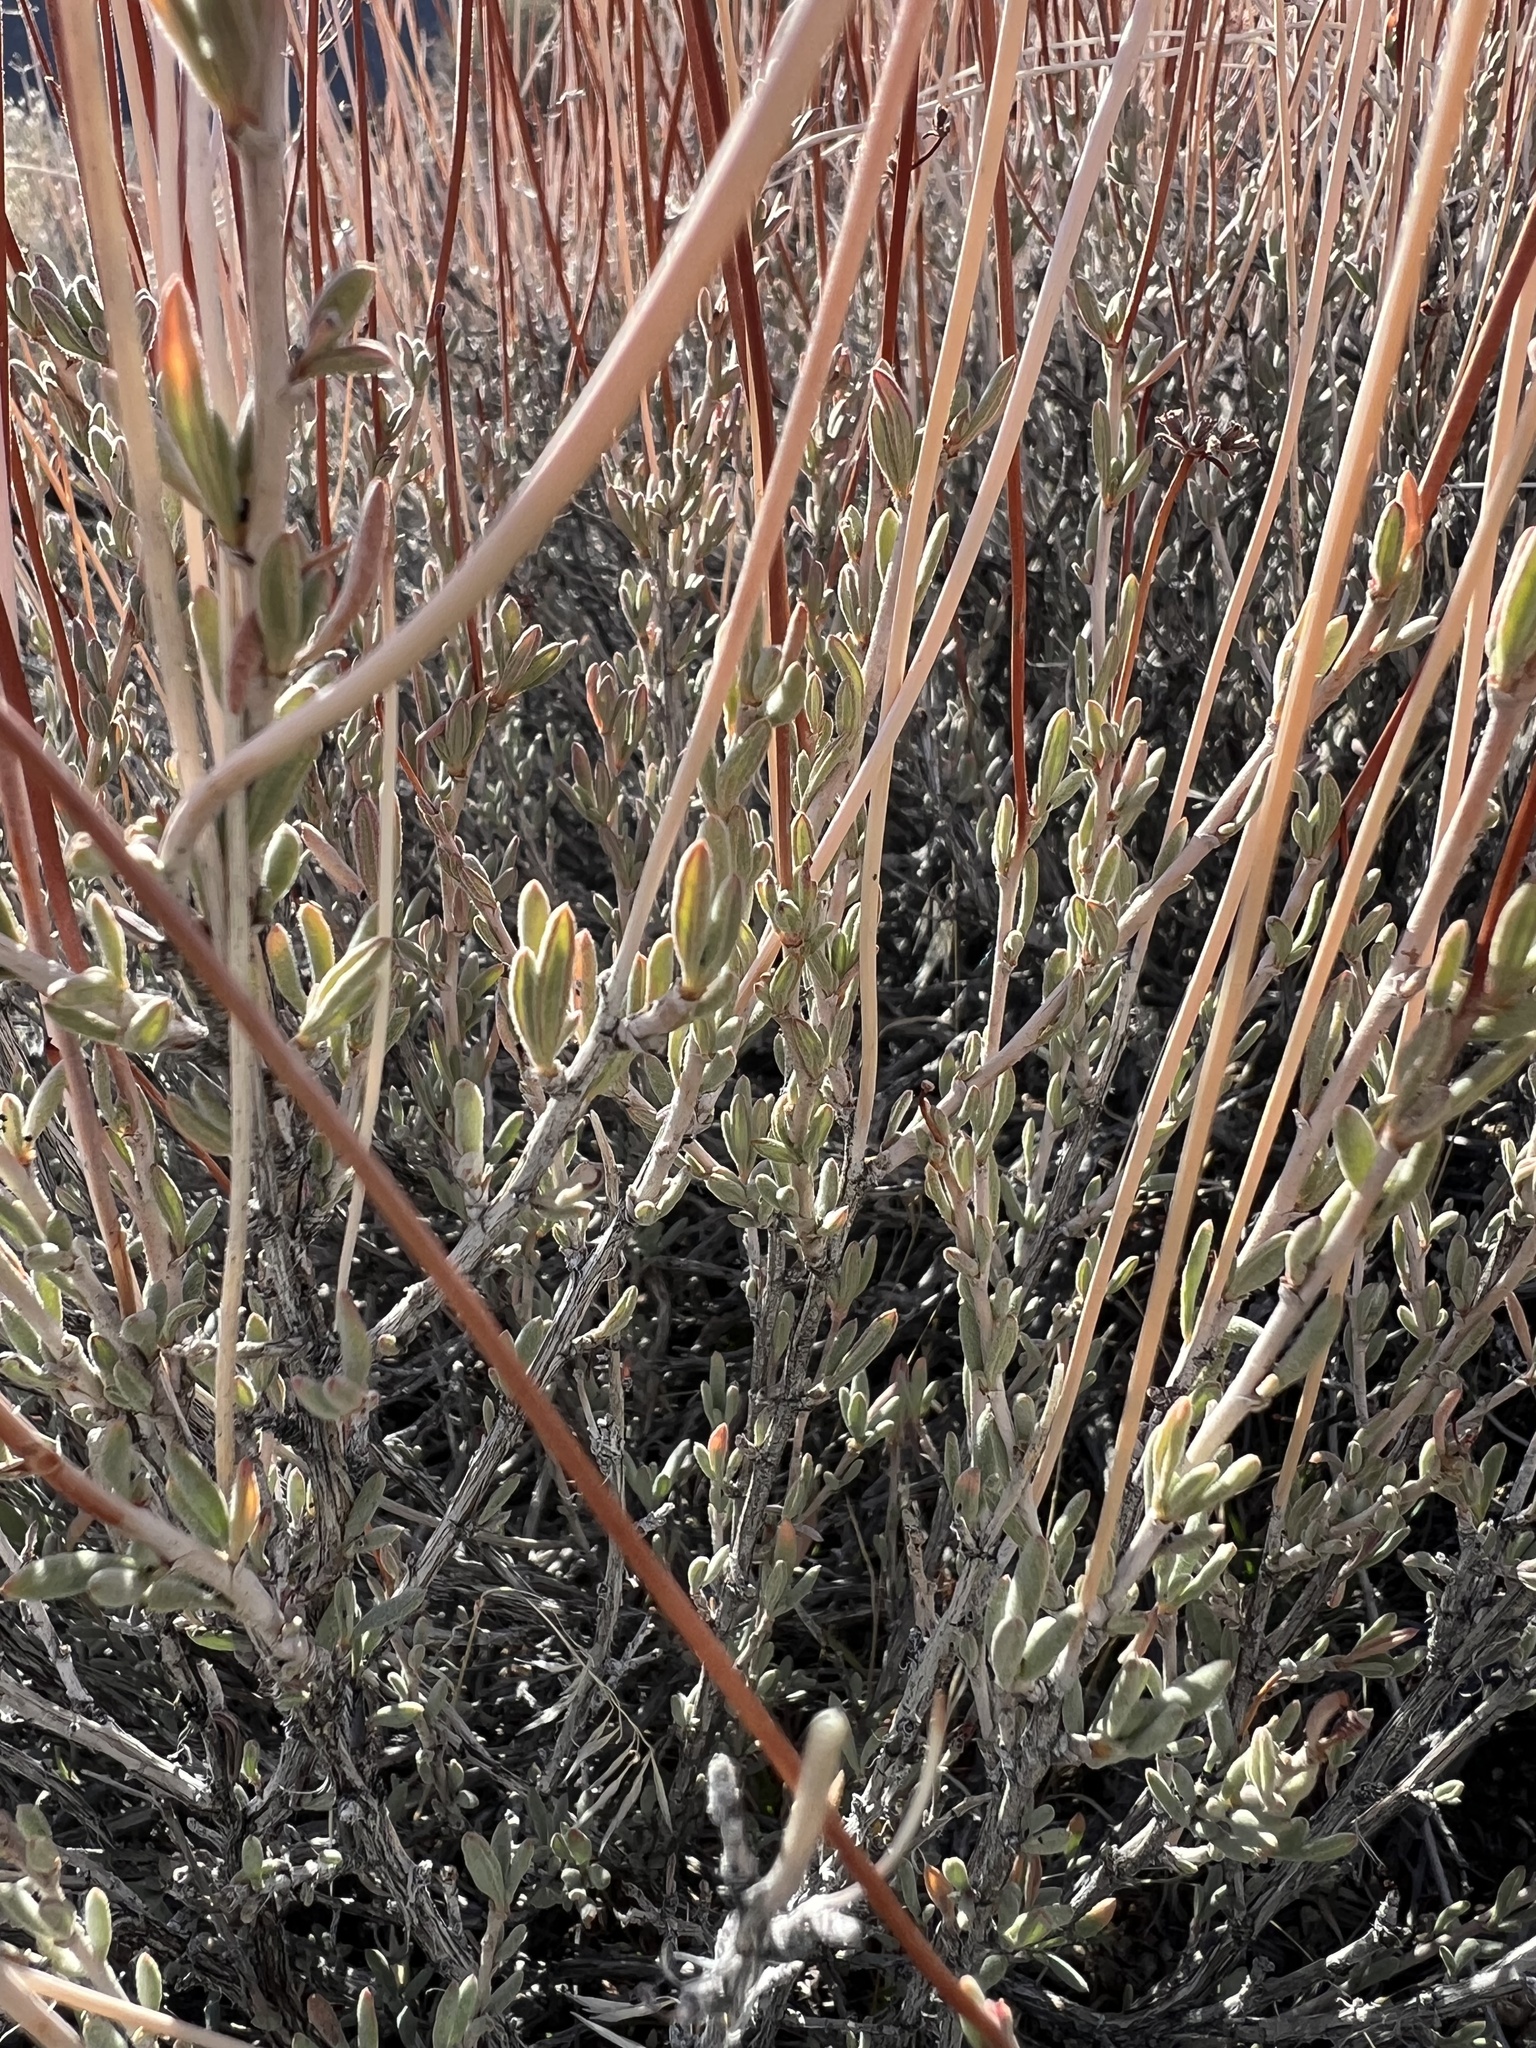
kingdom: Plantae
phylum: Tracheophyta
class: Magnoliopsida
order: Caryophyllales
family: Polygonaceae
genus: Eriogonum
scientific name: Eriogonum fasciculatum
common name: California wild buckwheat
